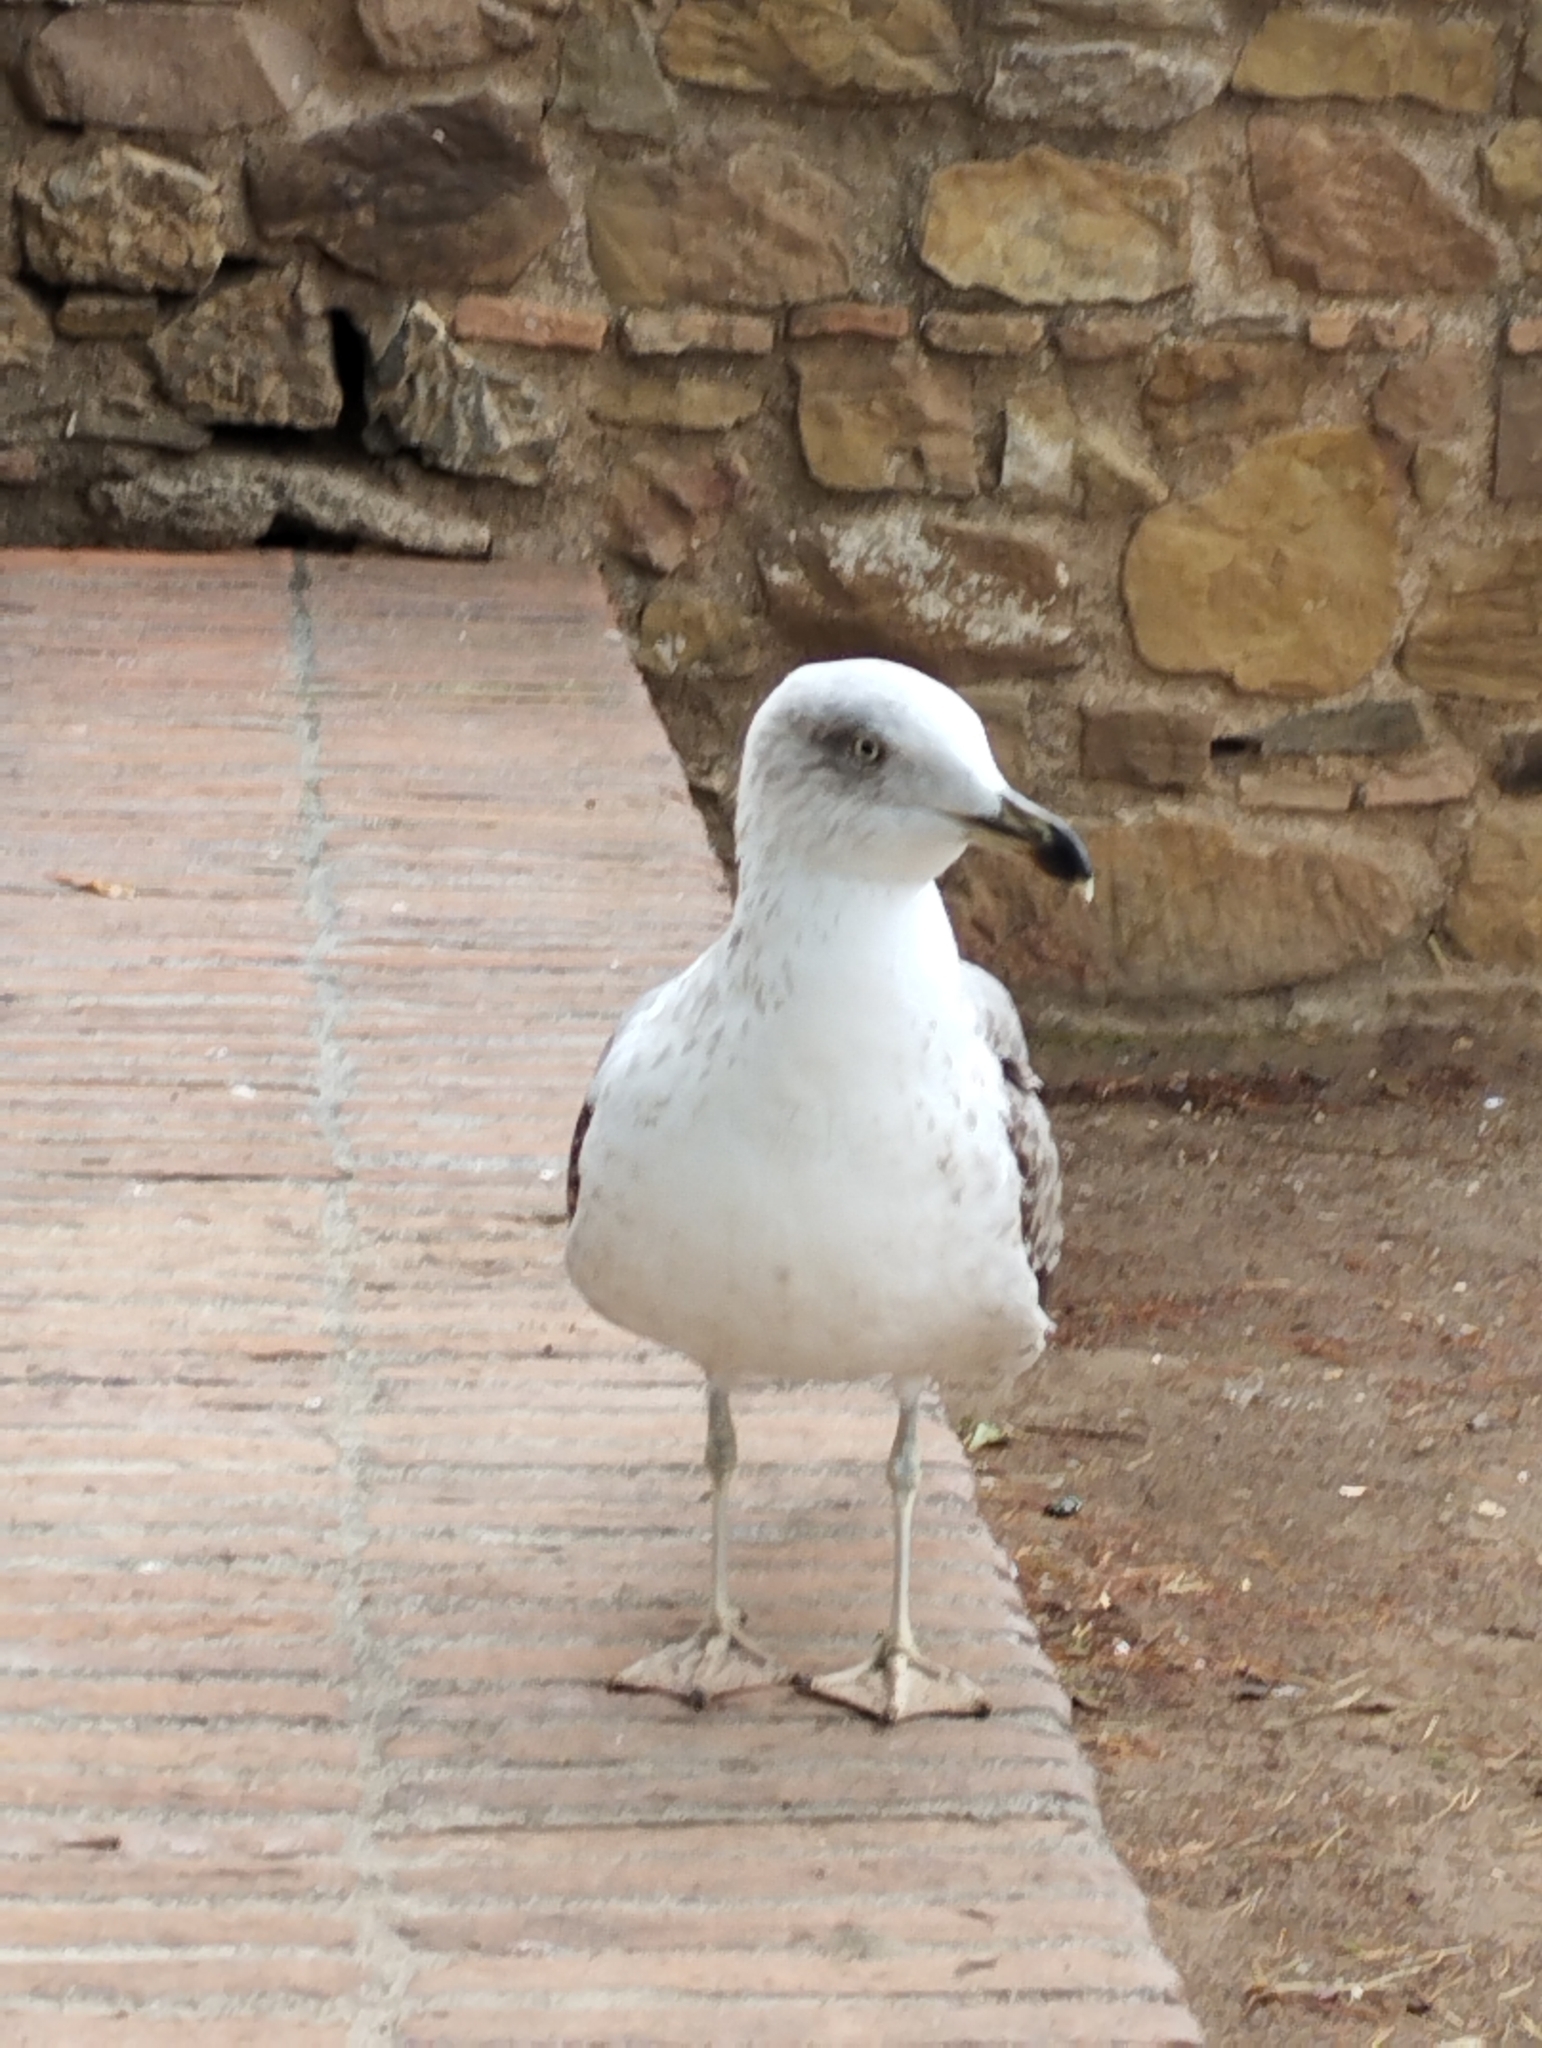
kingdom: Animalia
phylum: Chordata
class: Aves
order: Charadriiformes
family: Laridae
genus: Larus
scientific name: Larus michahellis
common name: Yellow-legged gull
